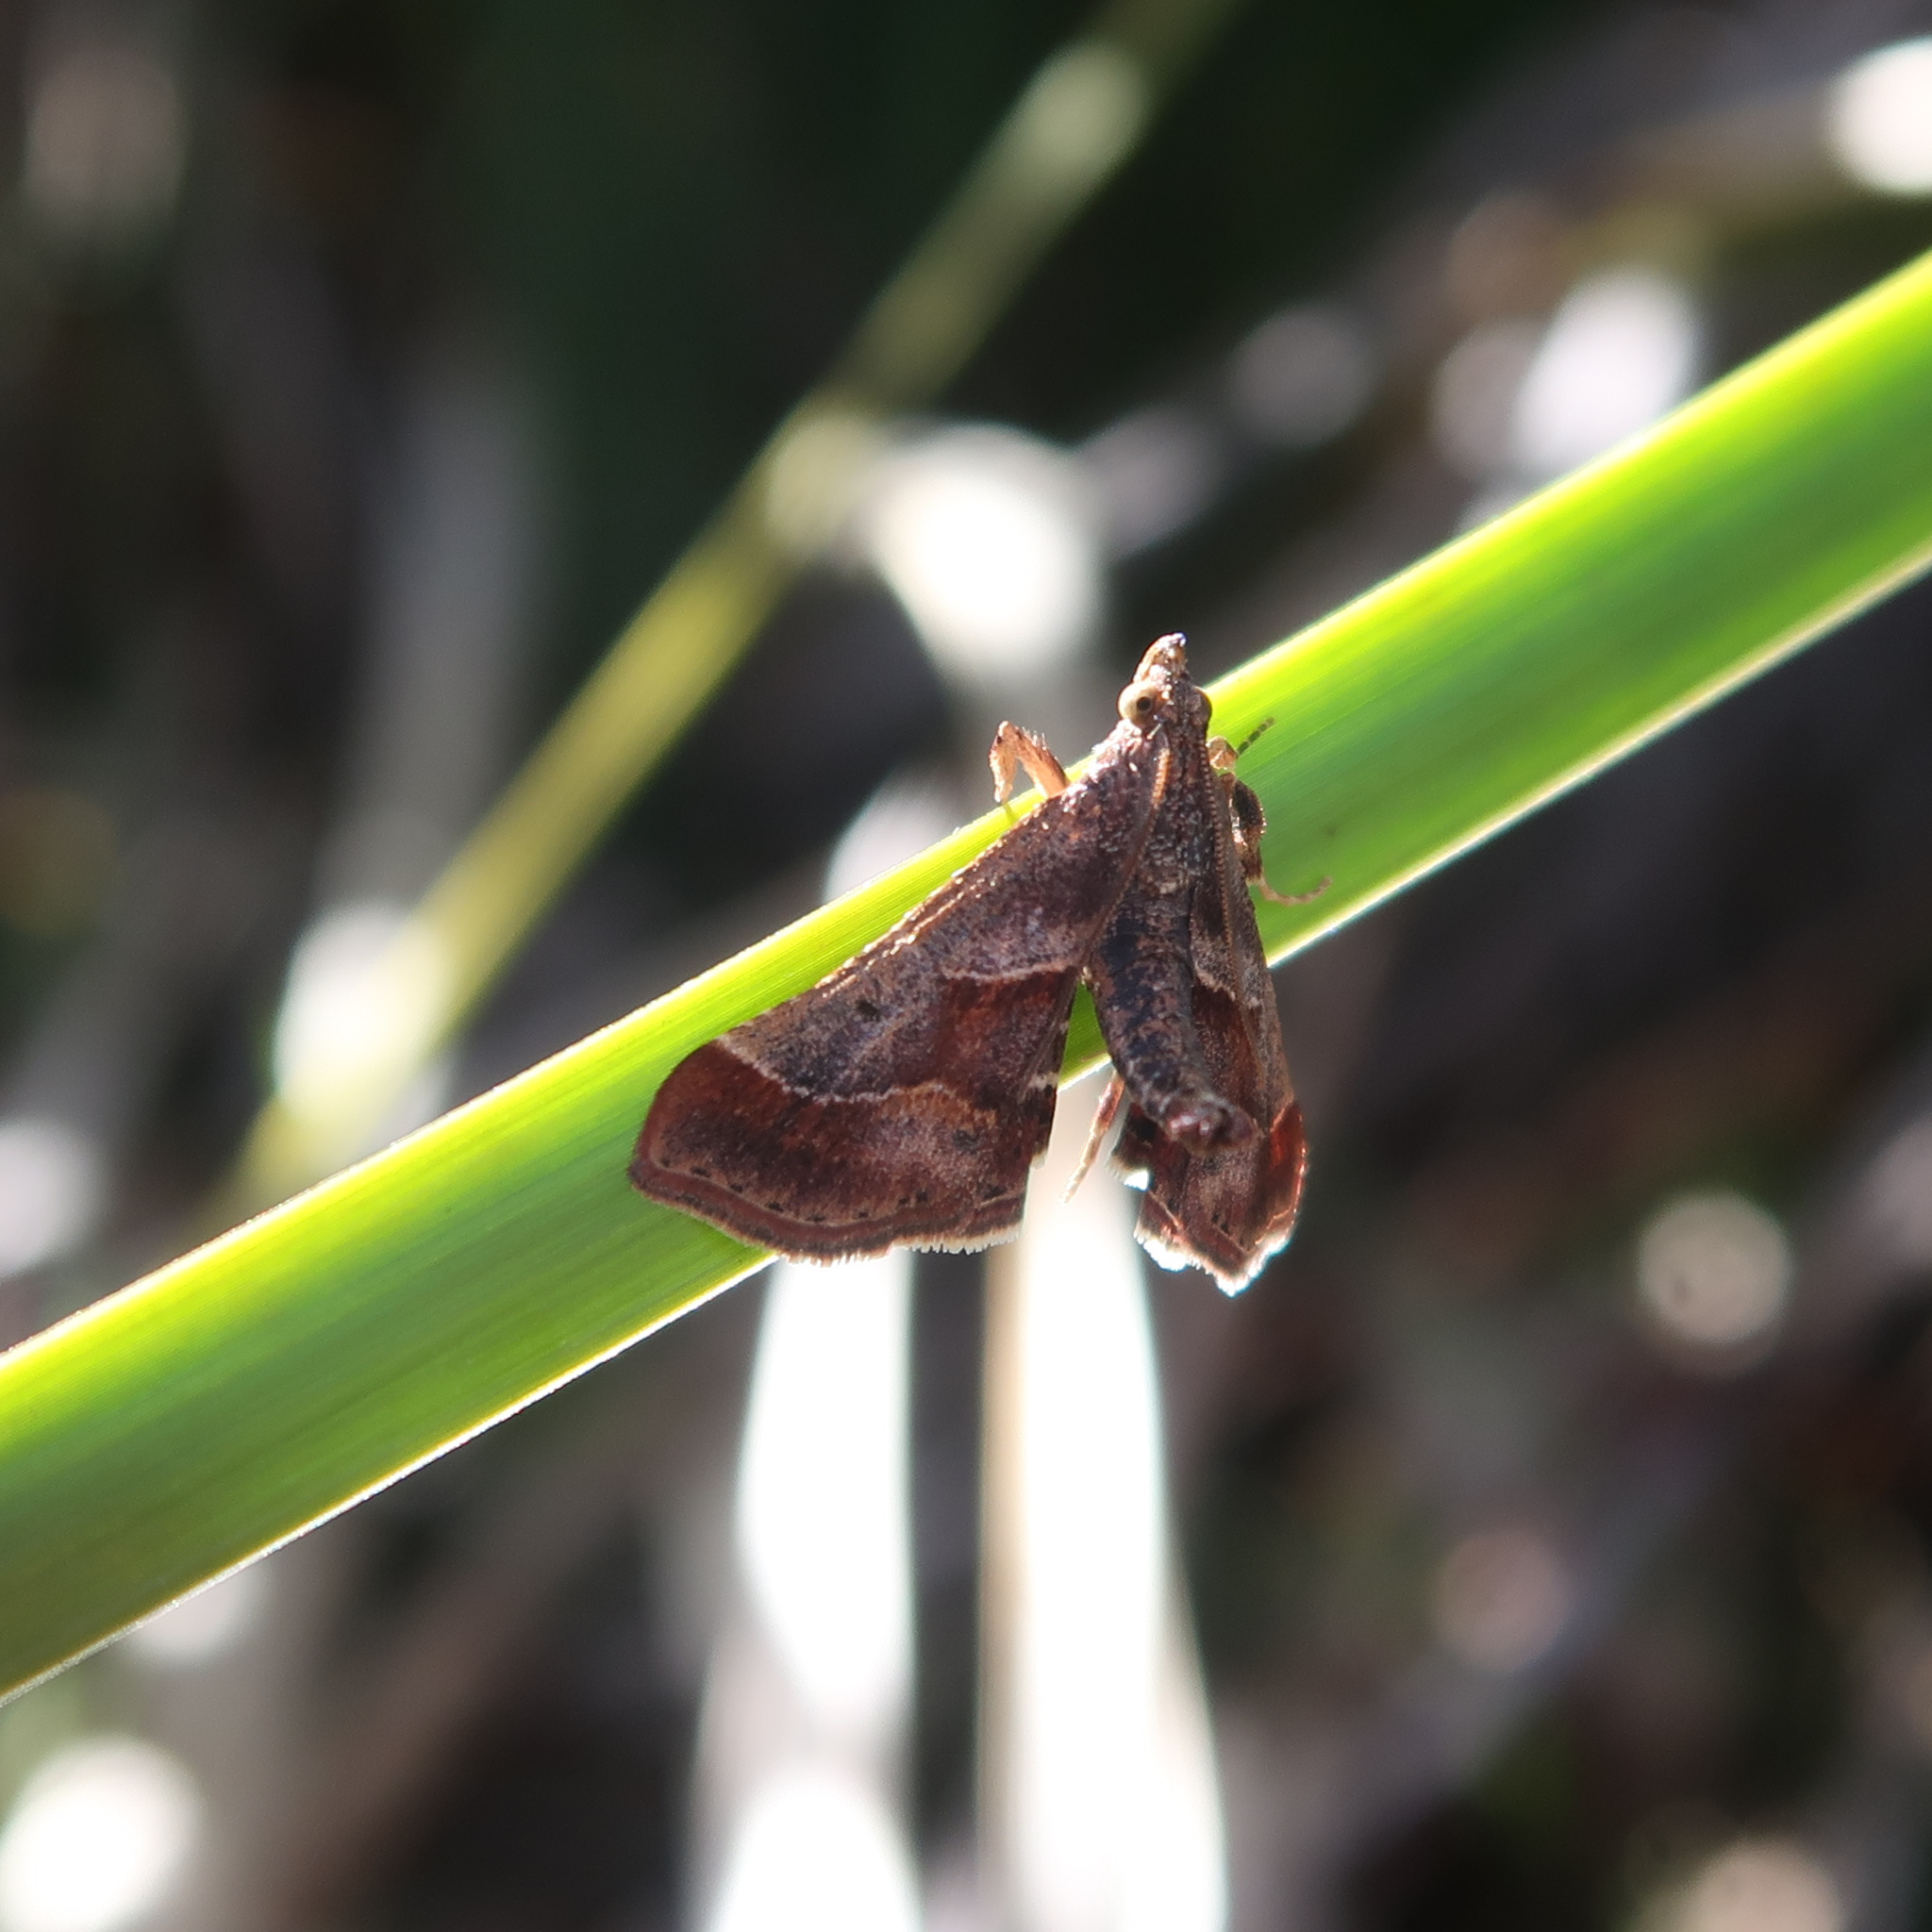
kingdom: Animalia
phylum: Arthropoda
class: Insecta
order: Lepidoptera
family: Pyralidae
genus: Gauna
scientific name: Gauna aegusalis
